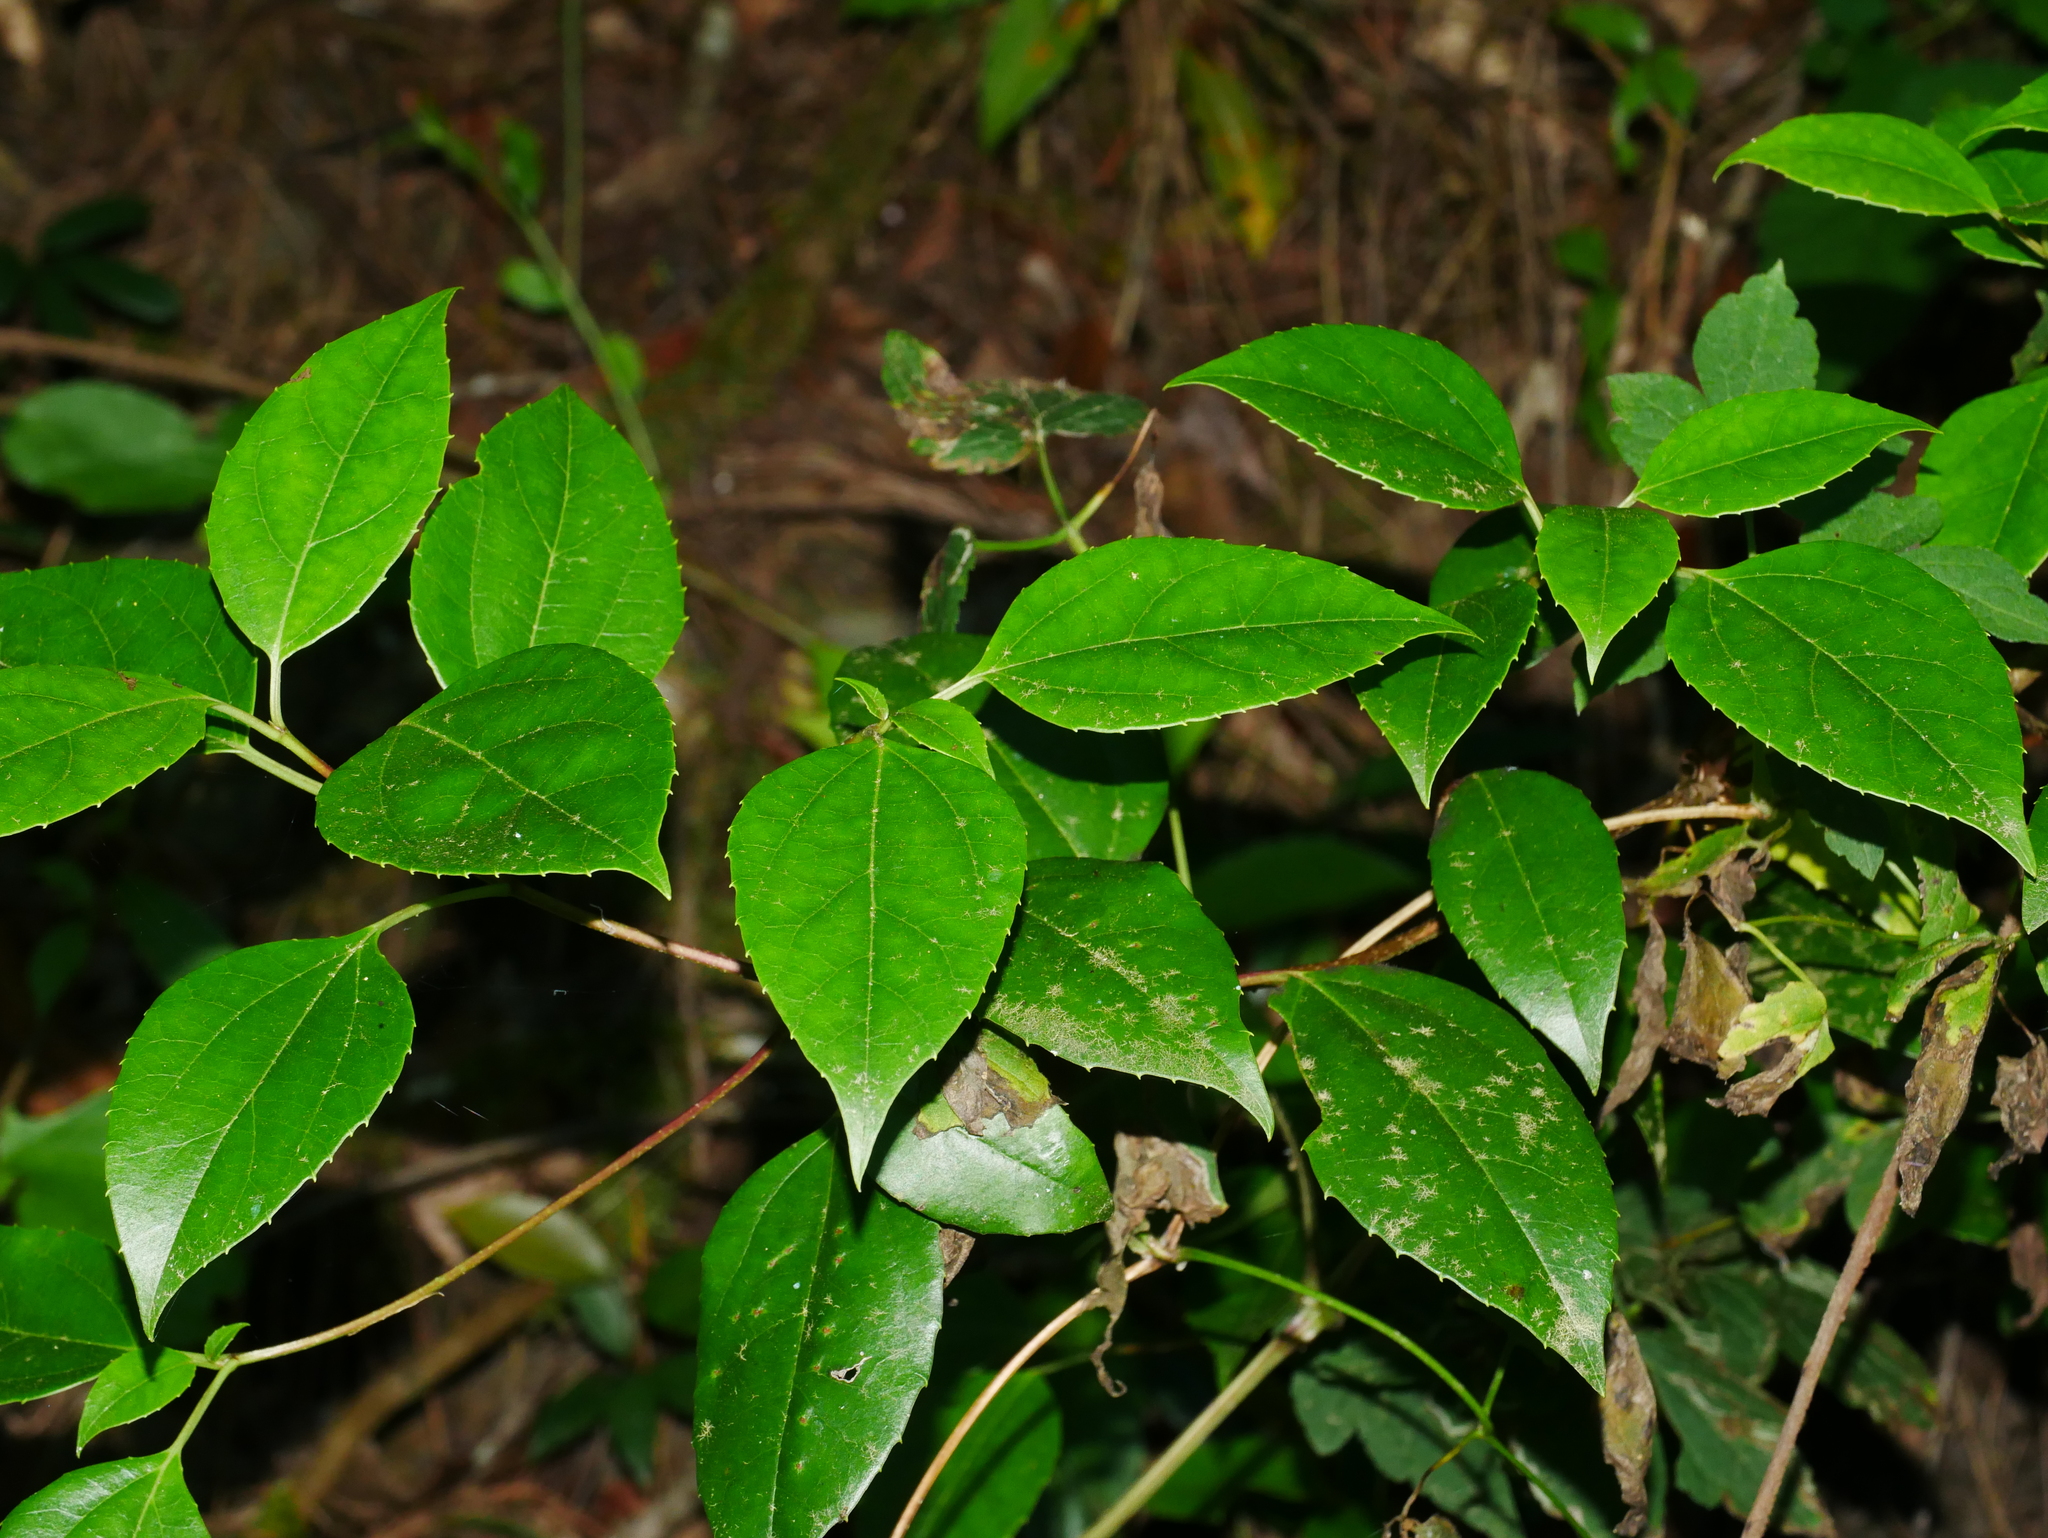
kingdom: Plantae
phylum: Tracheophyta
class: Magnoliopsida
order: Dipsacales
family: Viburnaceae
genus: Viburnum
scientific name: Viburnum propinquum
